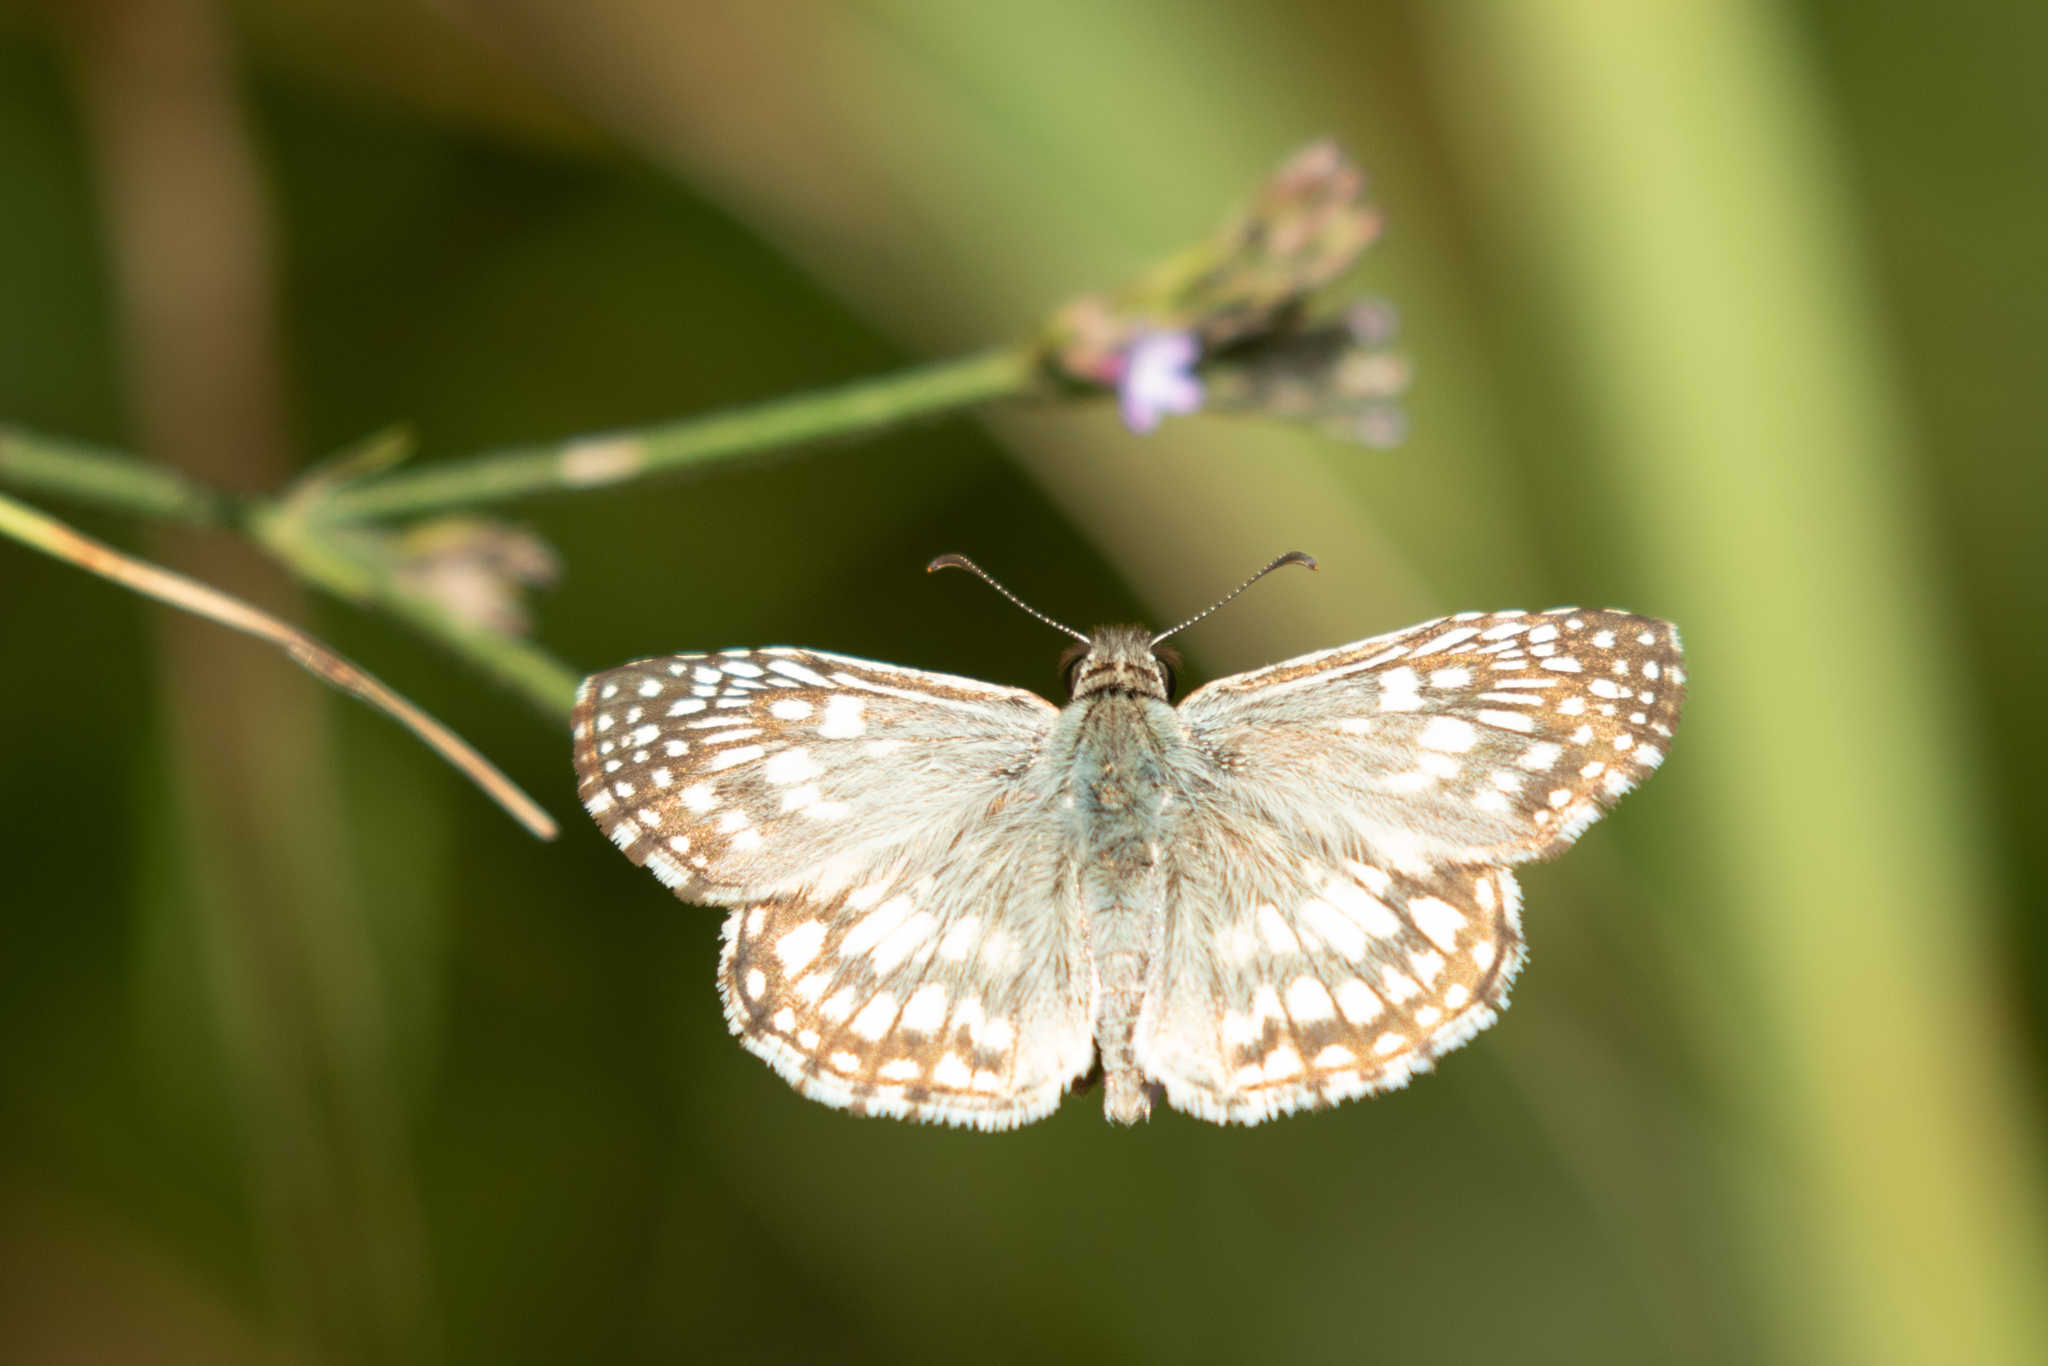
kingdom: Animalia
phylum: Arthropoda
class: Insecta
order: Lepidoptera
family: Hesperiidae
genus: Pyrgus
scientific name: Pyrgus oileus
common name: Tropical checkered-skipper
